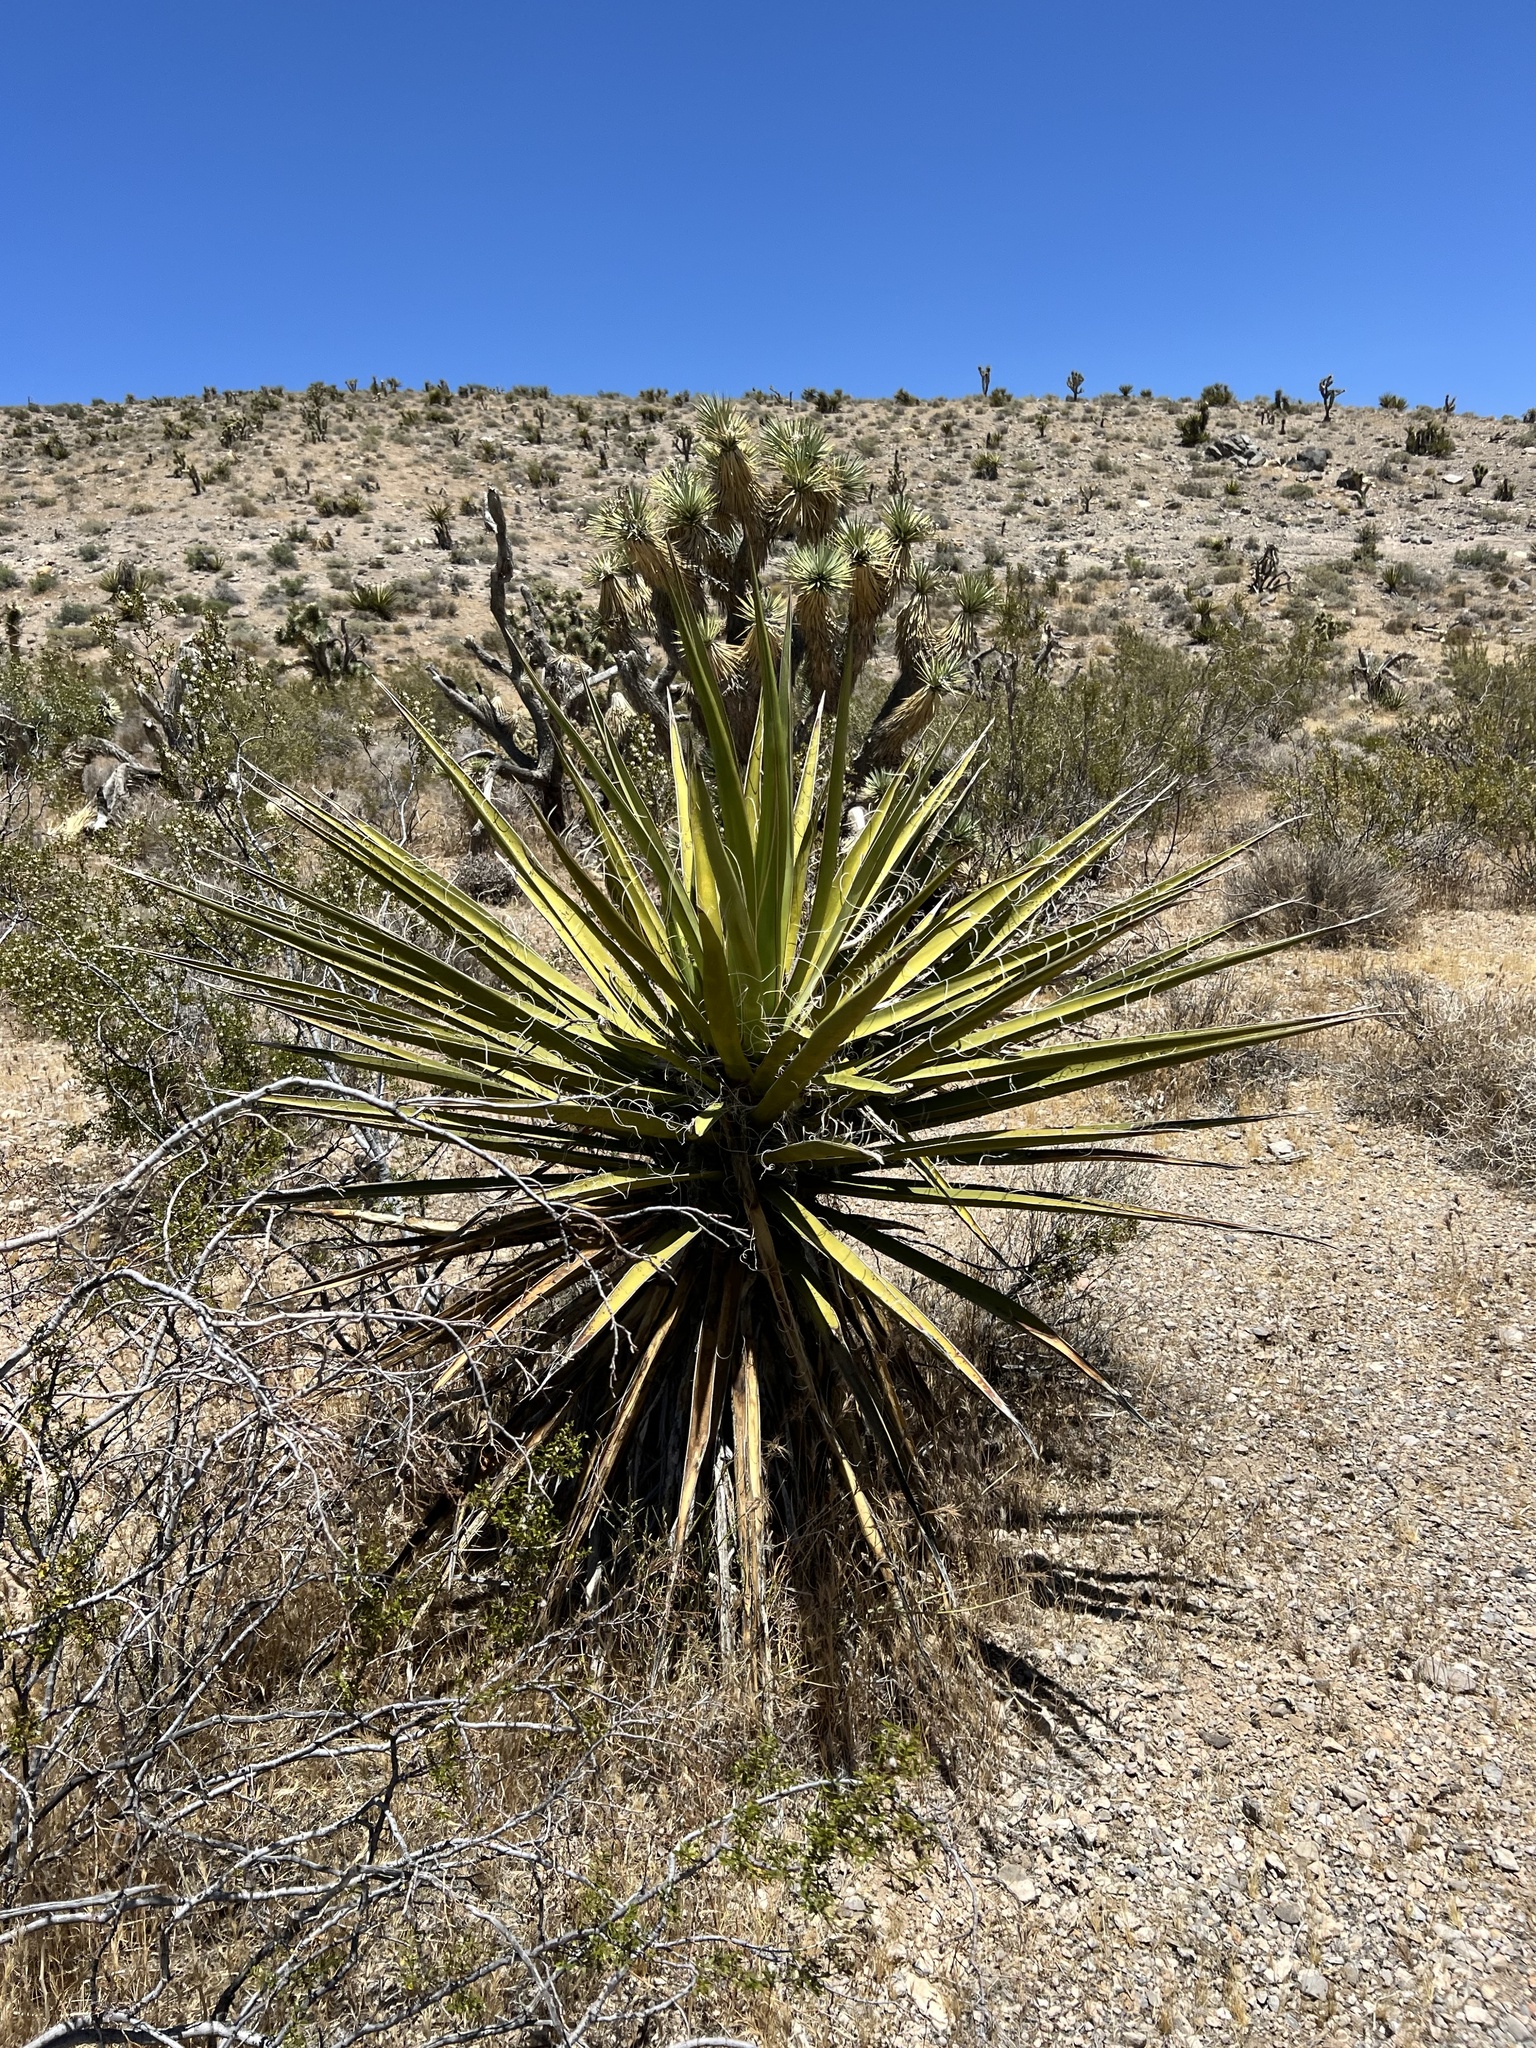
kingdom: Plantae
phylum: Tracheophyta
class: Liliopsida
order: Asparagales
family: Asparagaceae
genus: Yucca
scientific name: Yucca schidigera
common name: Mojave yucca
